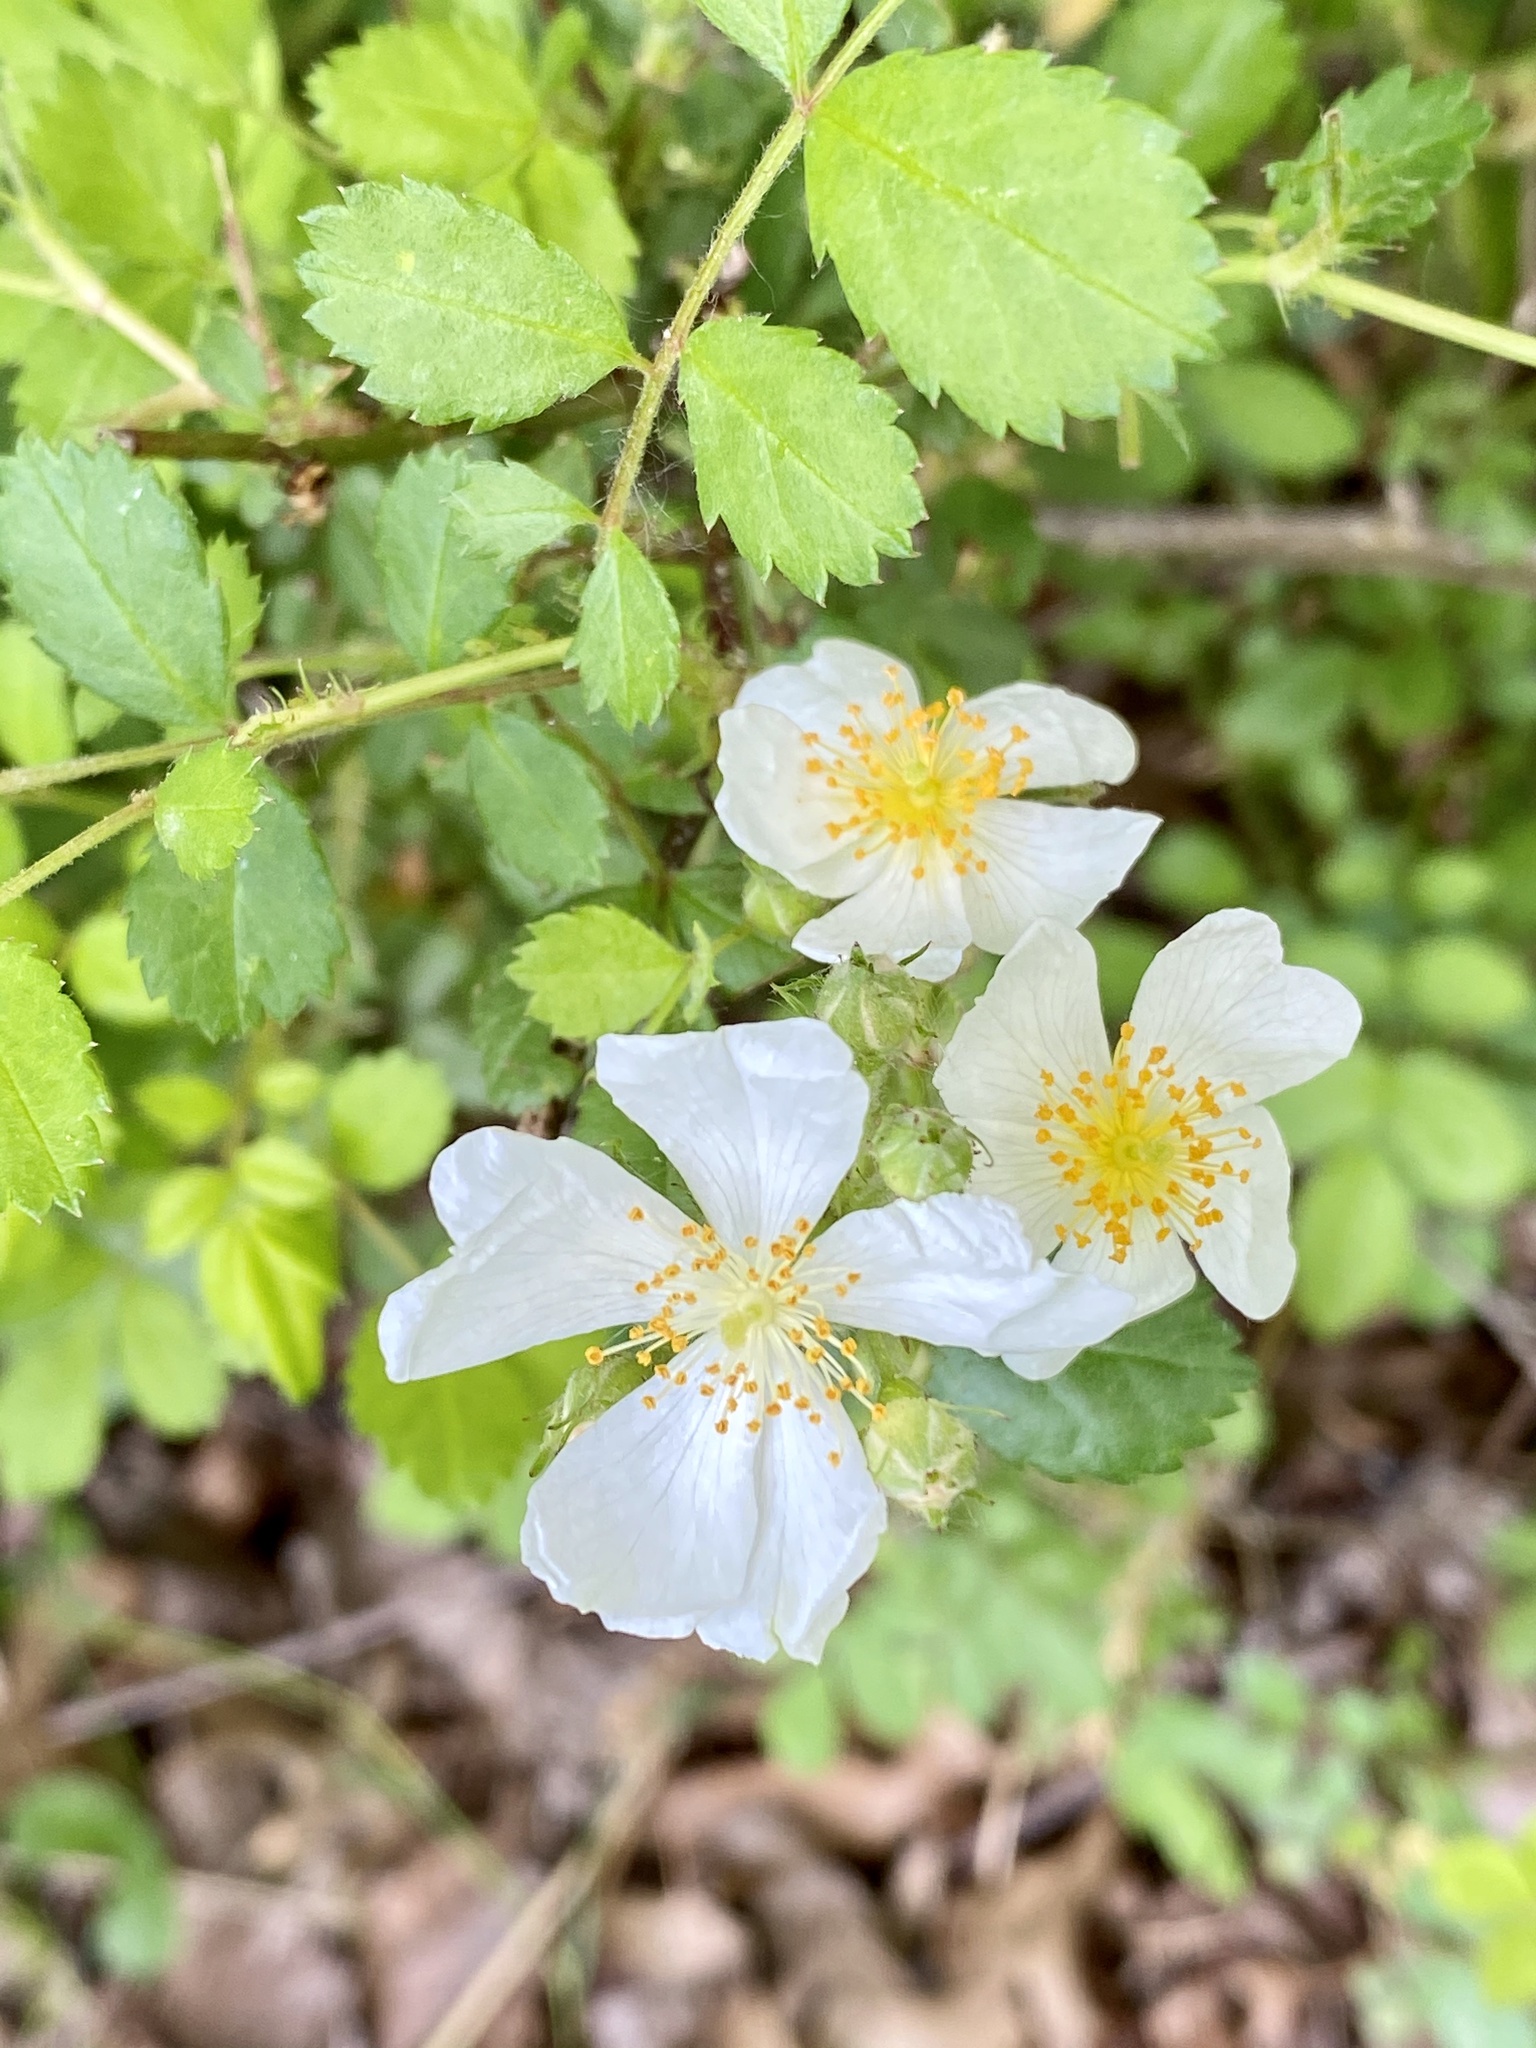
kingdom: Plantae
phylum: Tracheophyta
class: Magnoliopsida
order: Rosales
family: Rosaceae
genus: Rosa
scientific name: Rosa multiflora
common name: Multiflora rose
